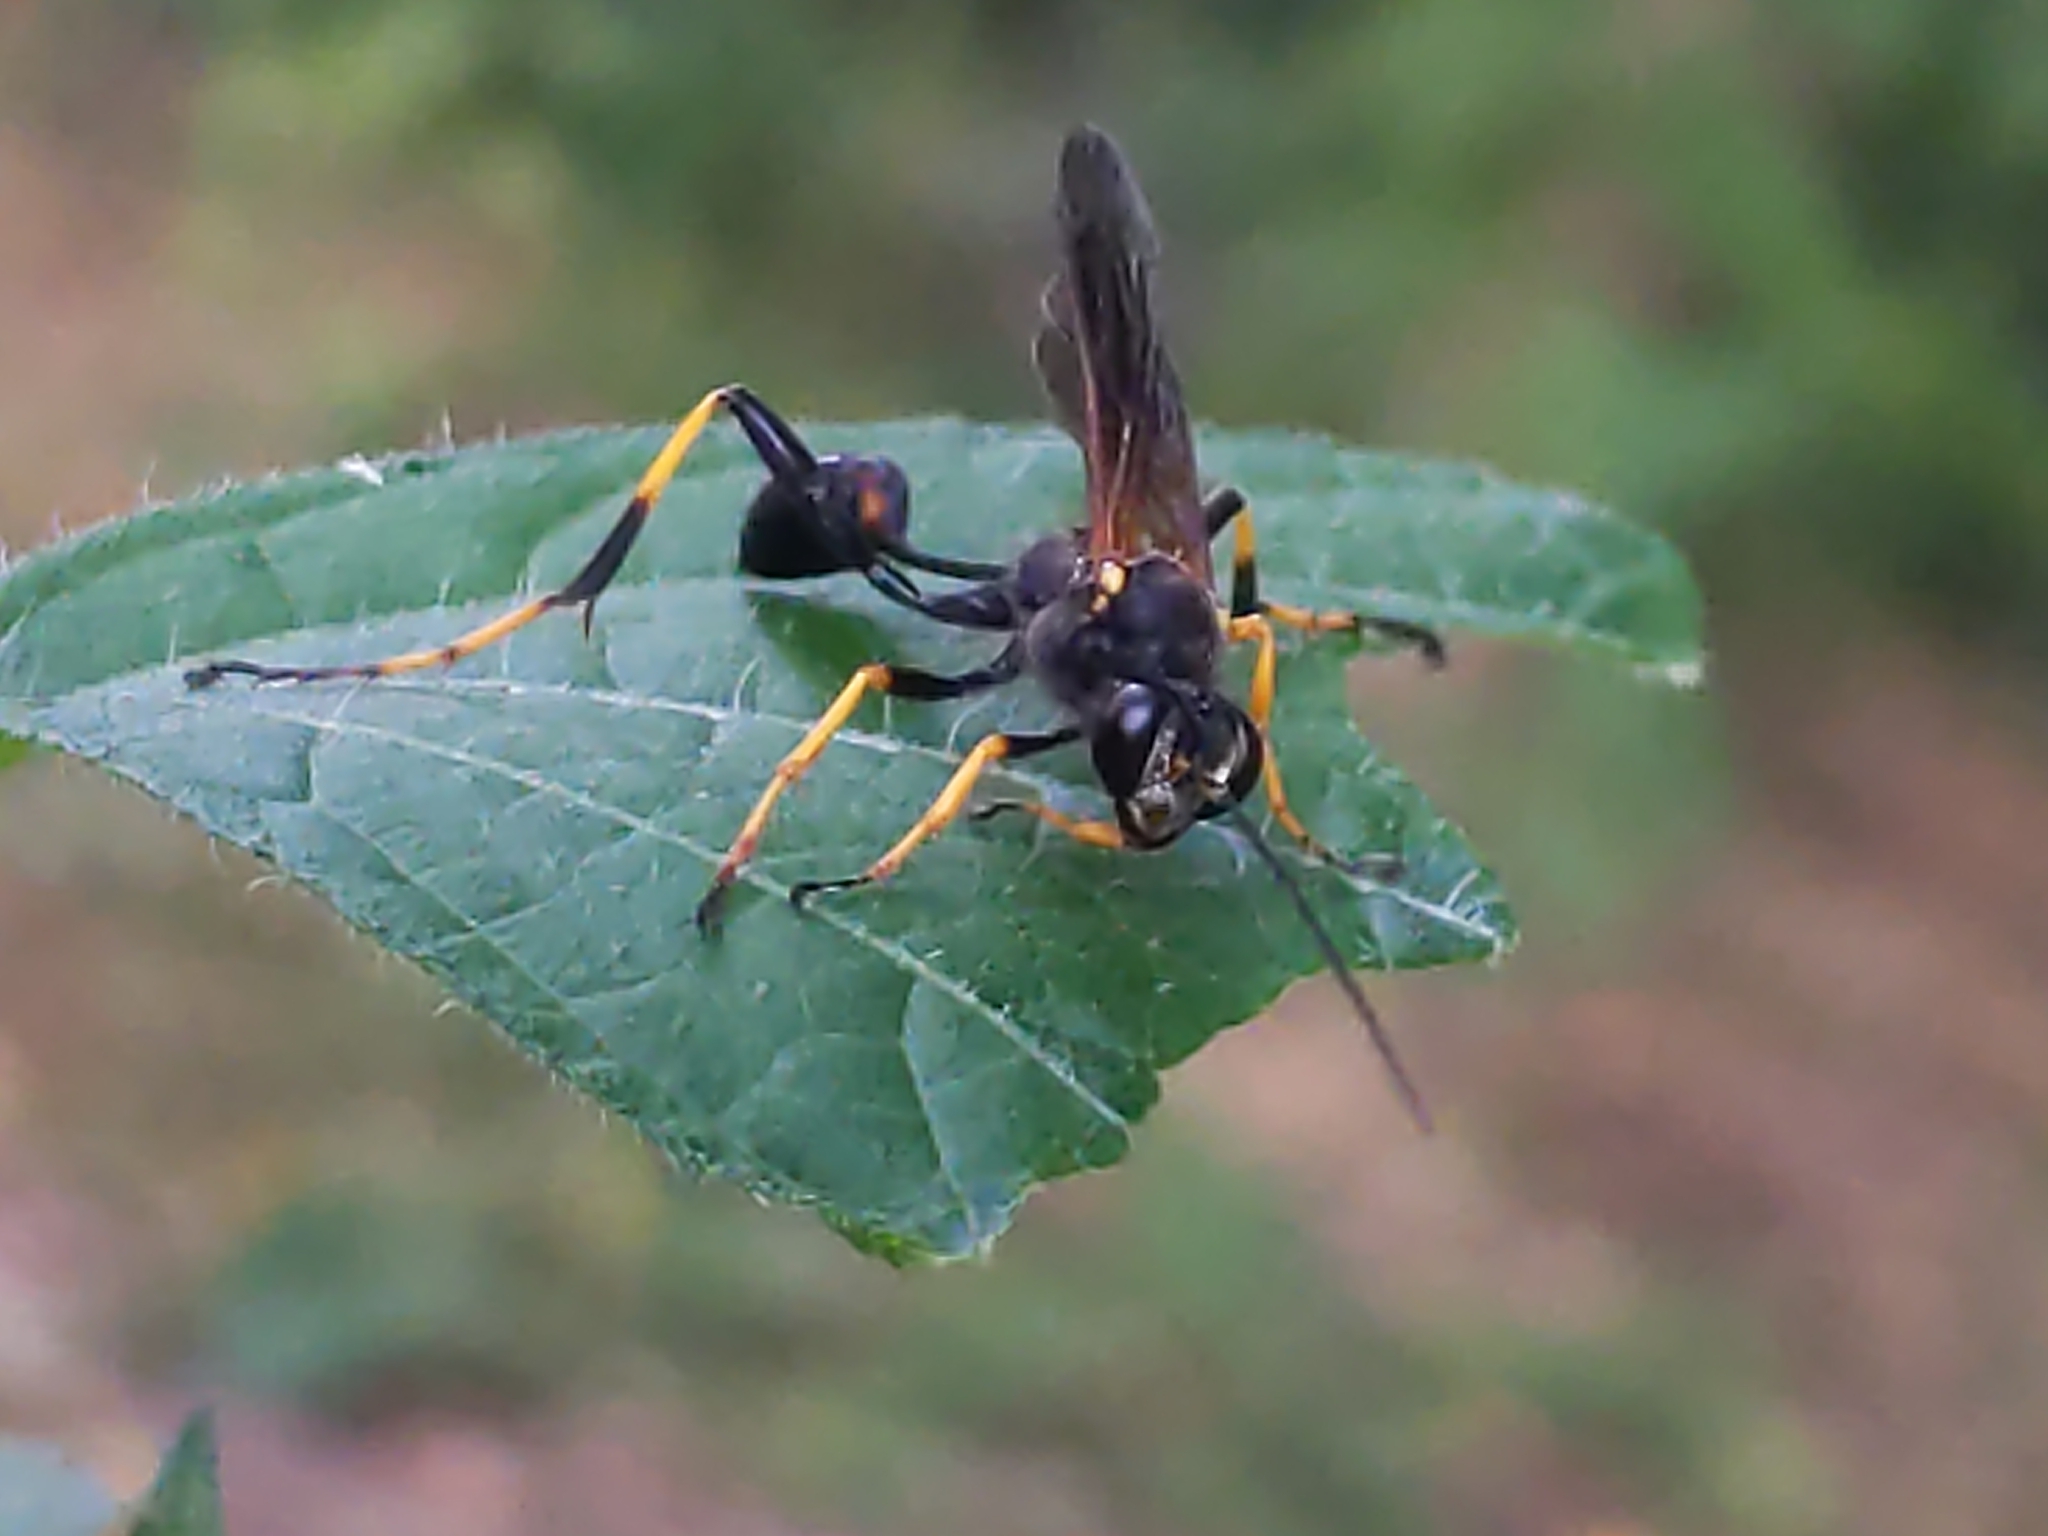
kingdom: Animalia
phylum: Arthropoda
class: Insecta
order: Hymenoptera
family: Sphecidae
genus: Sceliphron
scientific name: Sceliphron caementarium
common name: Mud dauber
